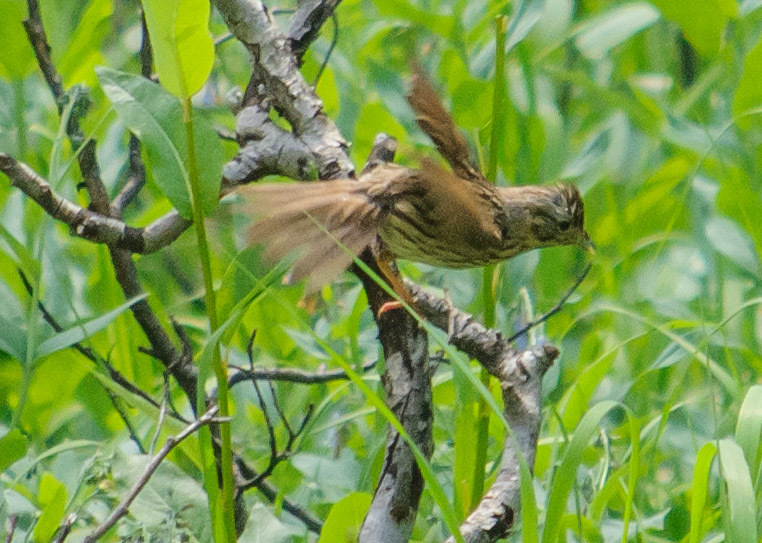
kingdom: Animalia
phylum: Chordata
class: Aves
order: Passeriformes
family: Passerellidae
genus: Melospiza
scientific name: Melospiza lincolnii
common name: Lincoln's sparrow
